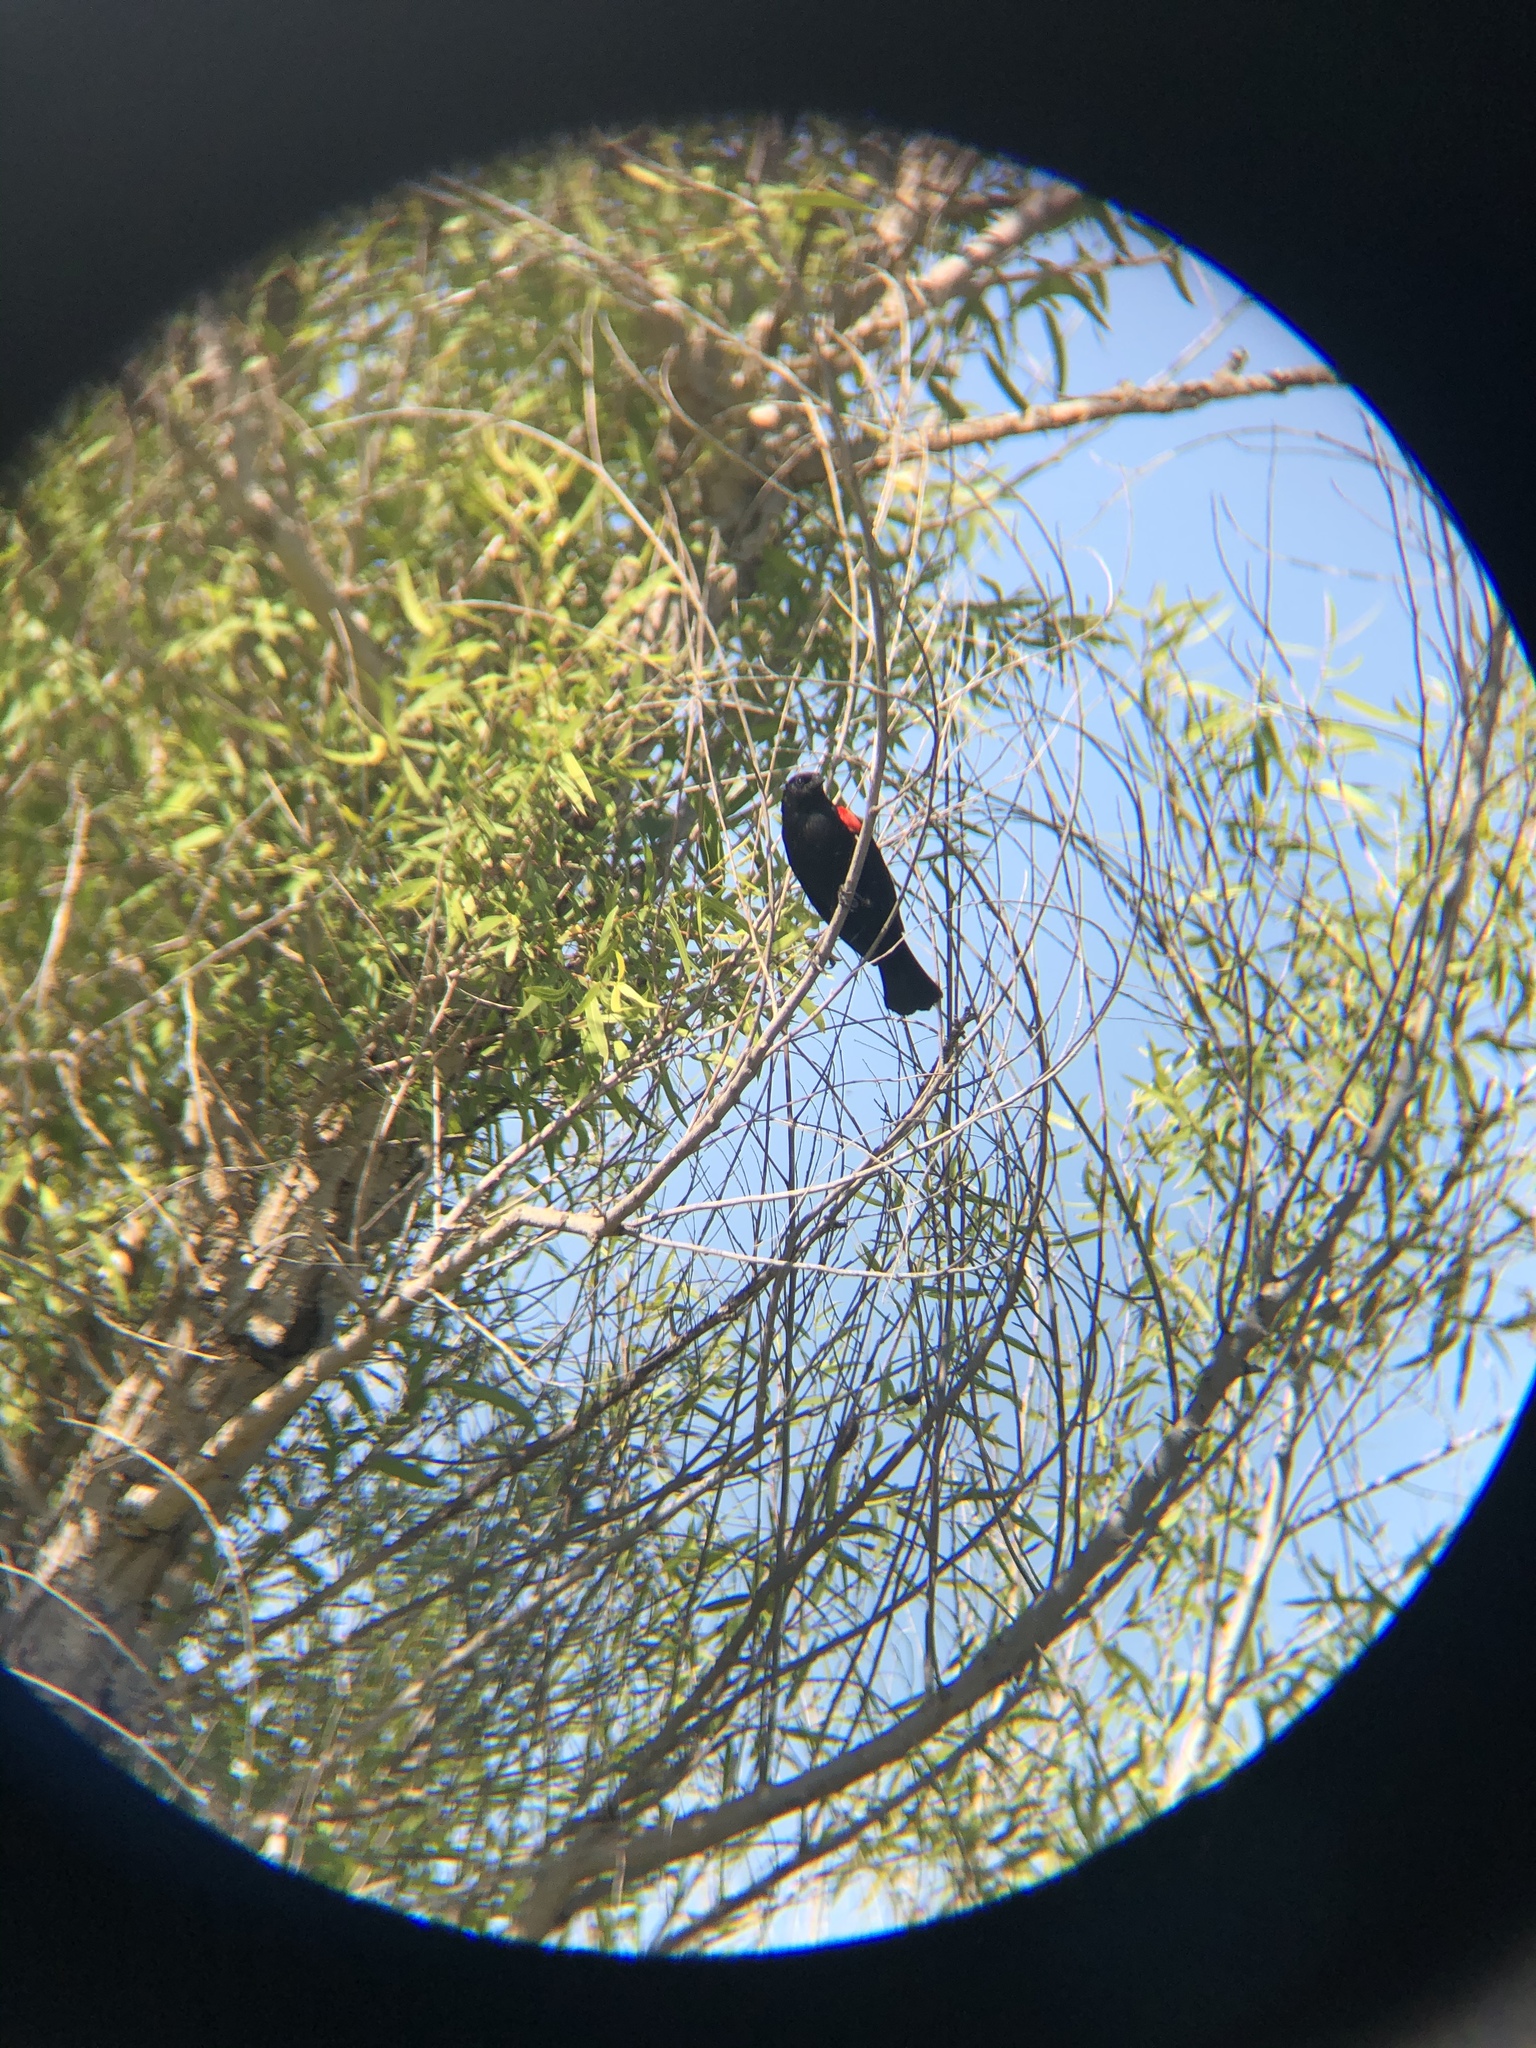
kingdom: Animalia
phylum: Chordata
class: Aves
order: Passeriformes
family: Icteridae
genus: Agelaius
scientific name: Agelaius phoeniceus
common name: Red-winged blackbird
